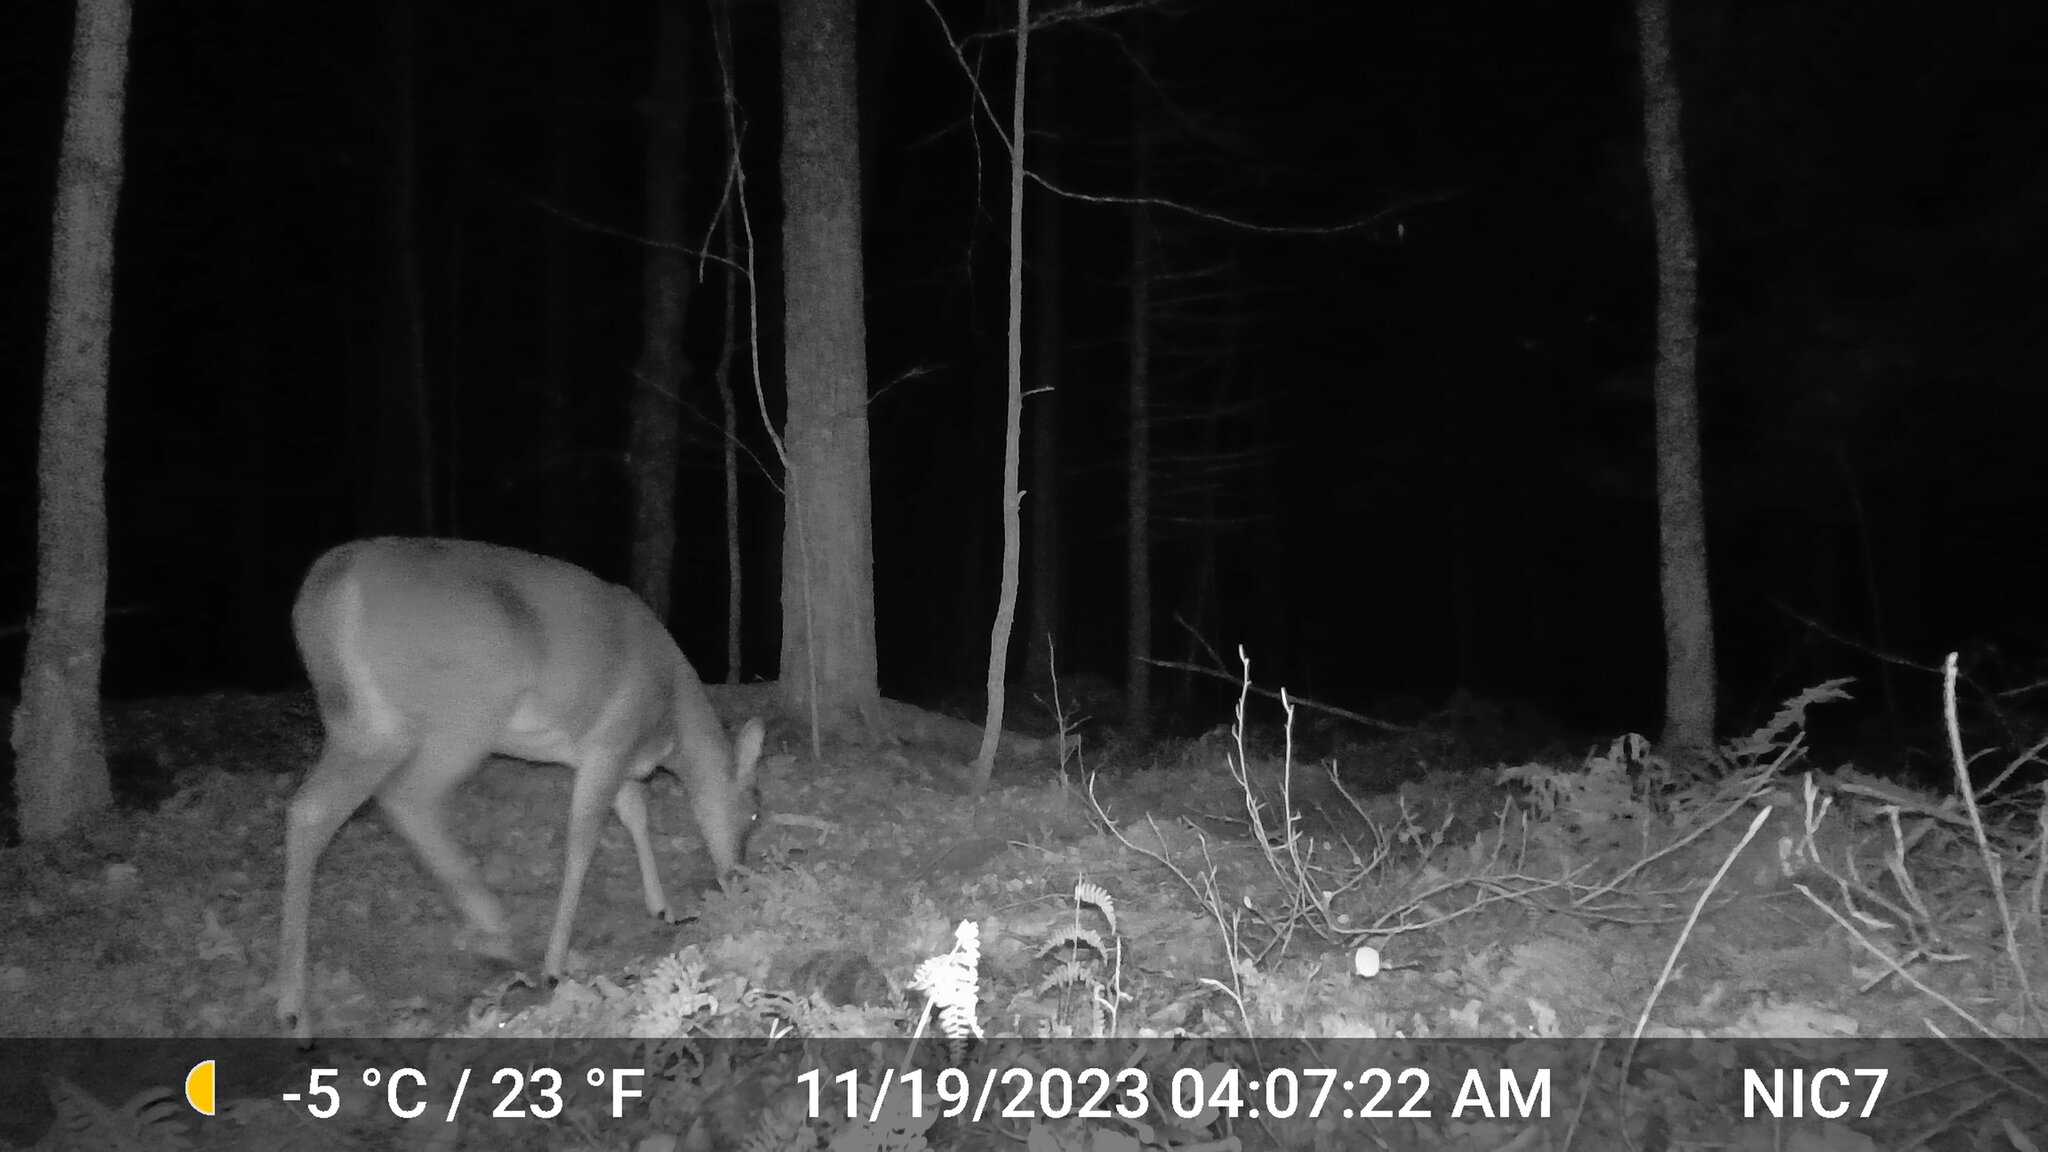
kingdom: Animalia
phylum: Chordata
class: Mammalia
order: Artiodactyla
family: Cervidae
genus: Odocoileus
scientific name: Odocoileus virginianus
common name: White-tailed deer
